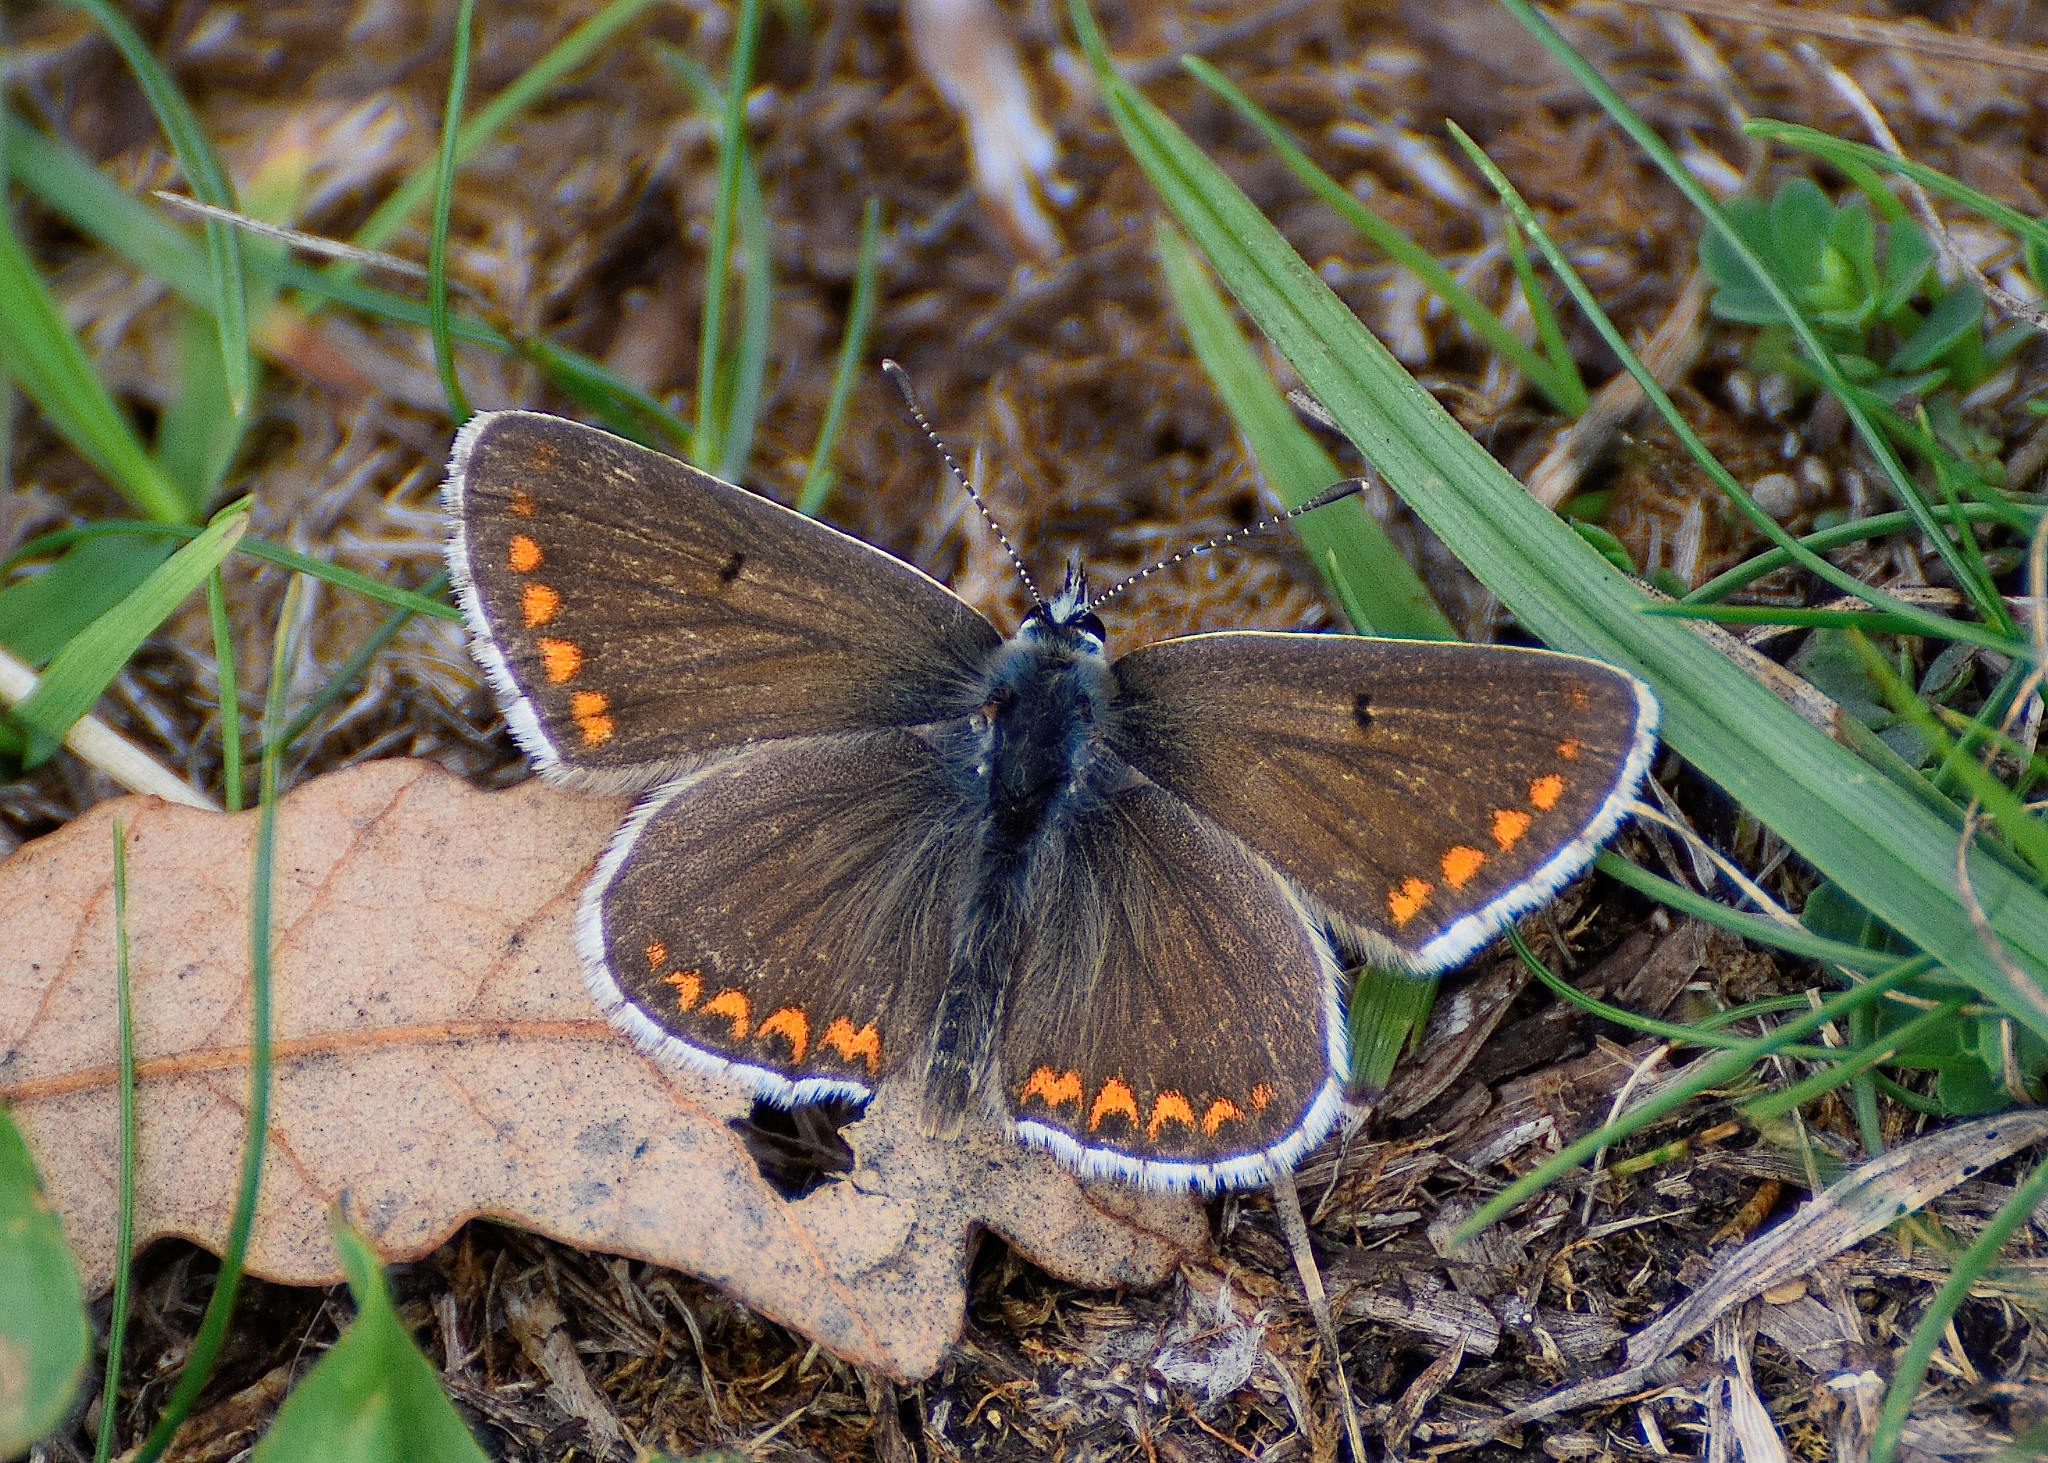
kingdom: Animalia
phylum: Arthropoda
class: Insecta
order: Lepidoptera
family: Lycaenidae
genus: Aricia
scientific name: Aricia agestis
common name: Brown argus
